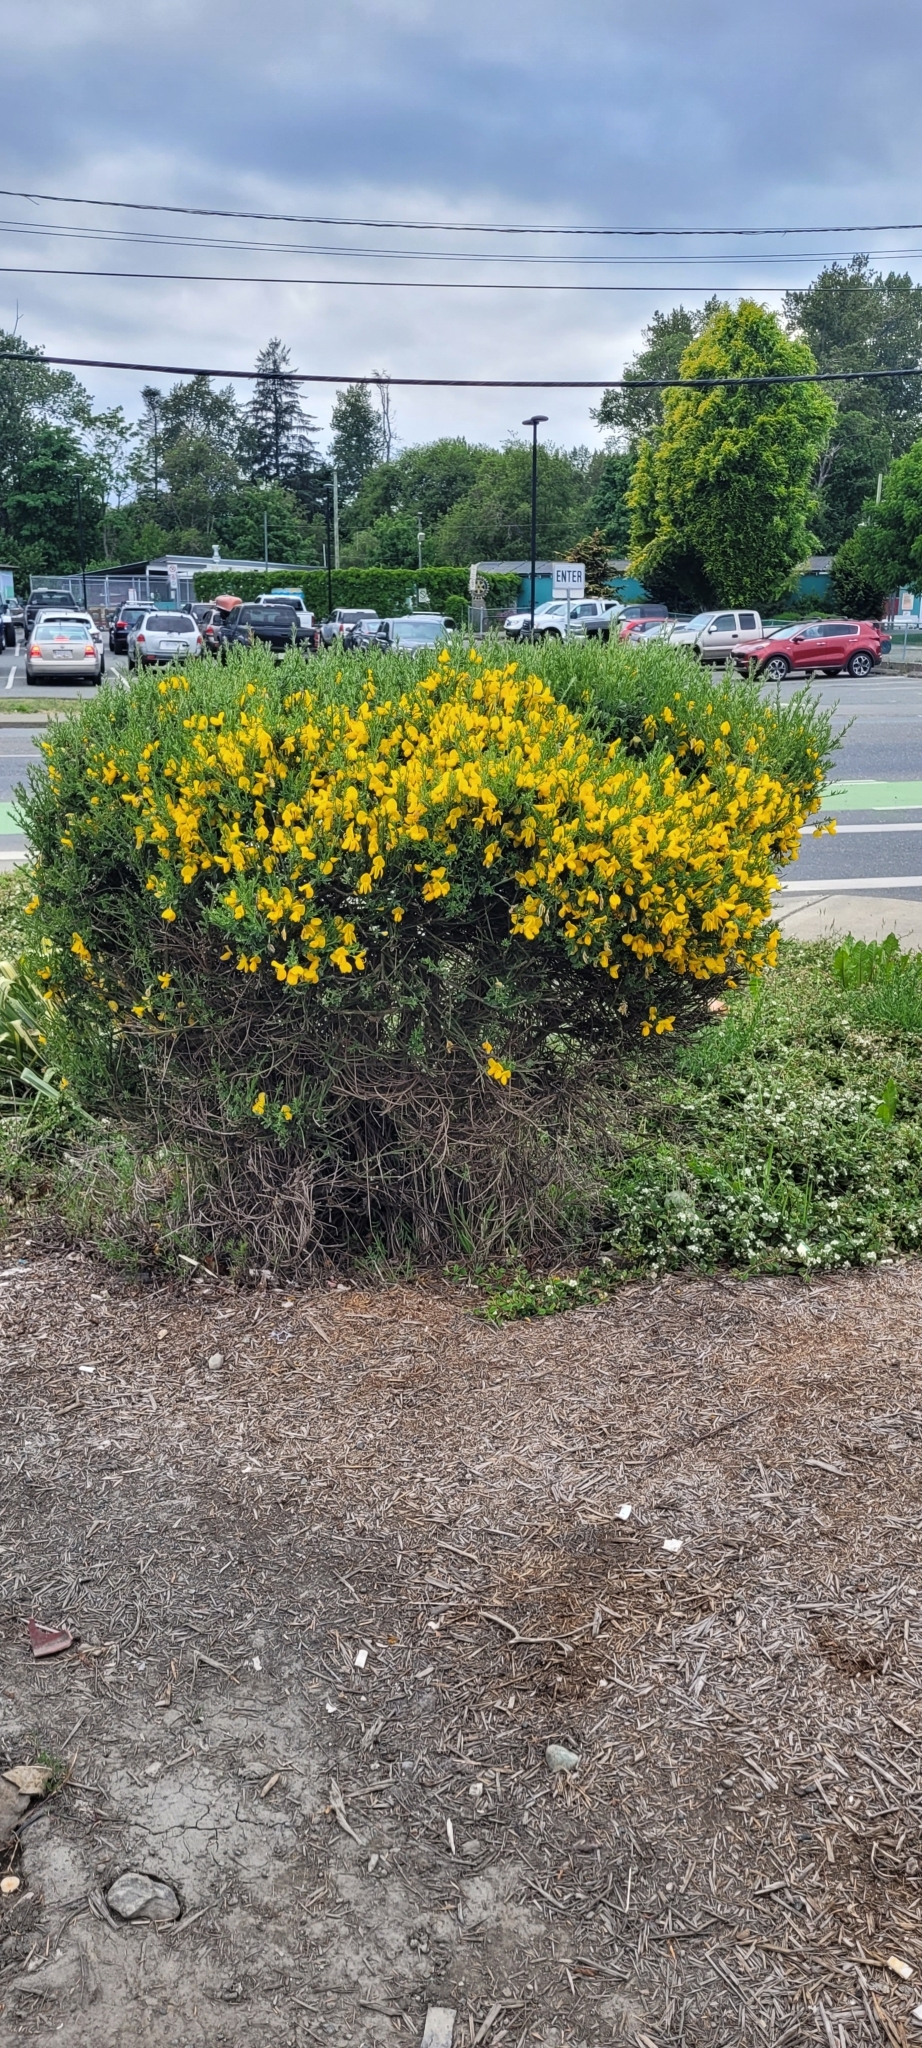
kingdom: Plantae
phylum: Tracheophyta
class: Magnoliopsida
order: Fabales
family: Fabaceae
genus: Cytisus
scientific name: Cytisus scoparius
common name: Scotch broom
